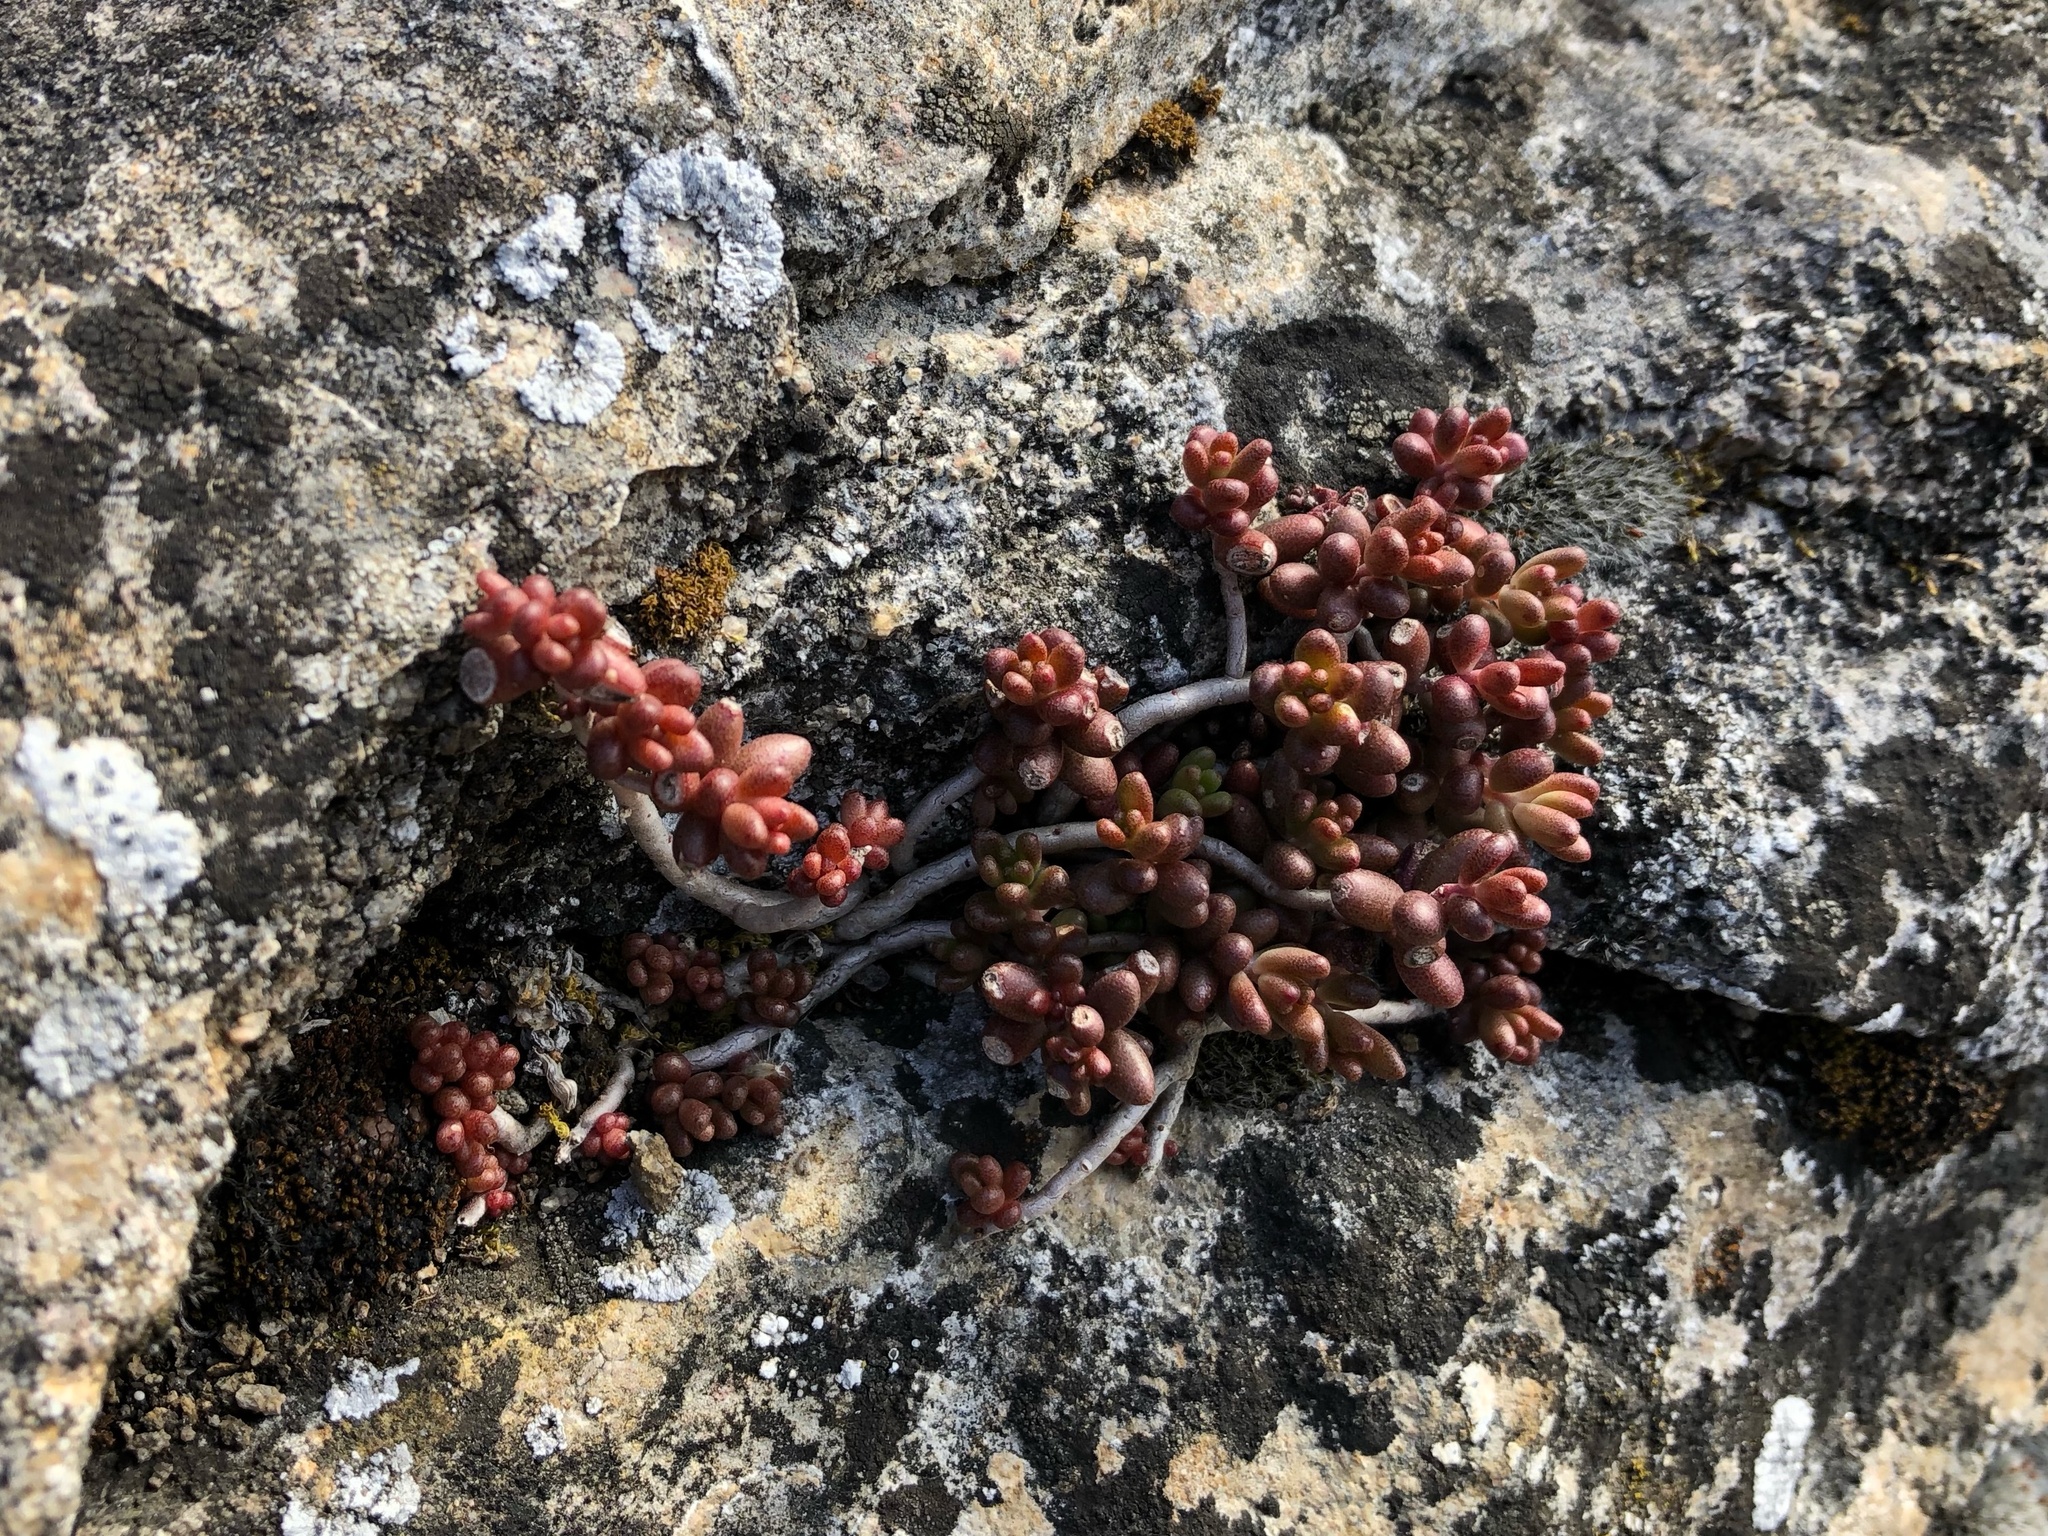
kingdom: Plantae
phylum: Tracheophyta
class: Magnoliopsida
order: Saxifragales
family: Crassulaceae
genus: Sedum
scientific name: Sedum album
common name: White stonecrop
